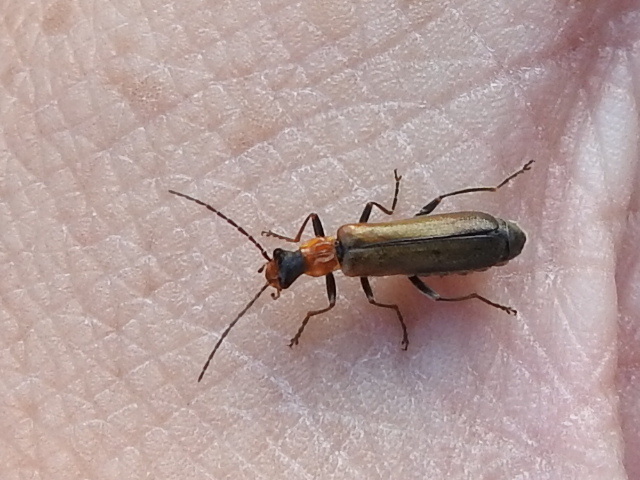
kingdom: Animalia
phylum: Arthropoda
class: Insecta
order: Coleoptera
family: Cantharidae
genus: Dichelotarsus
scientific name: Dichelotarsus cavicollis
